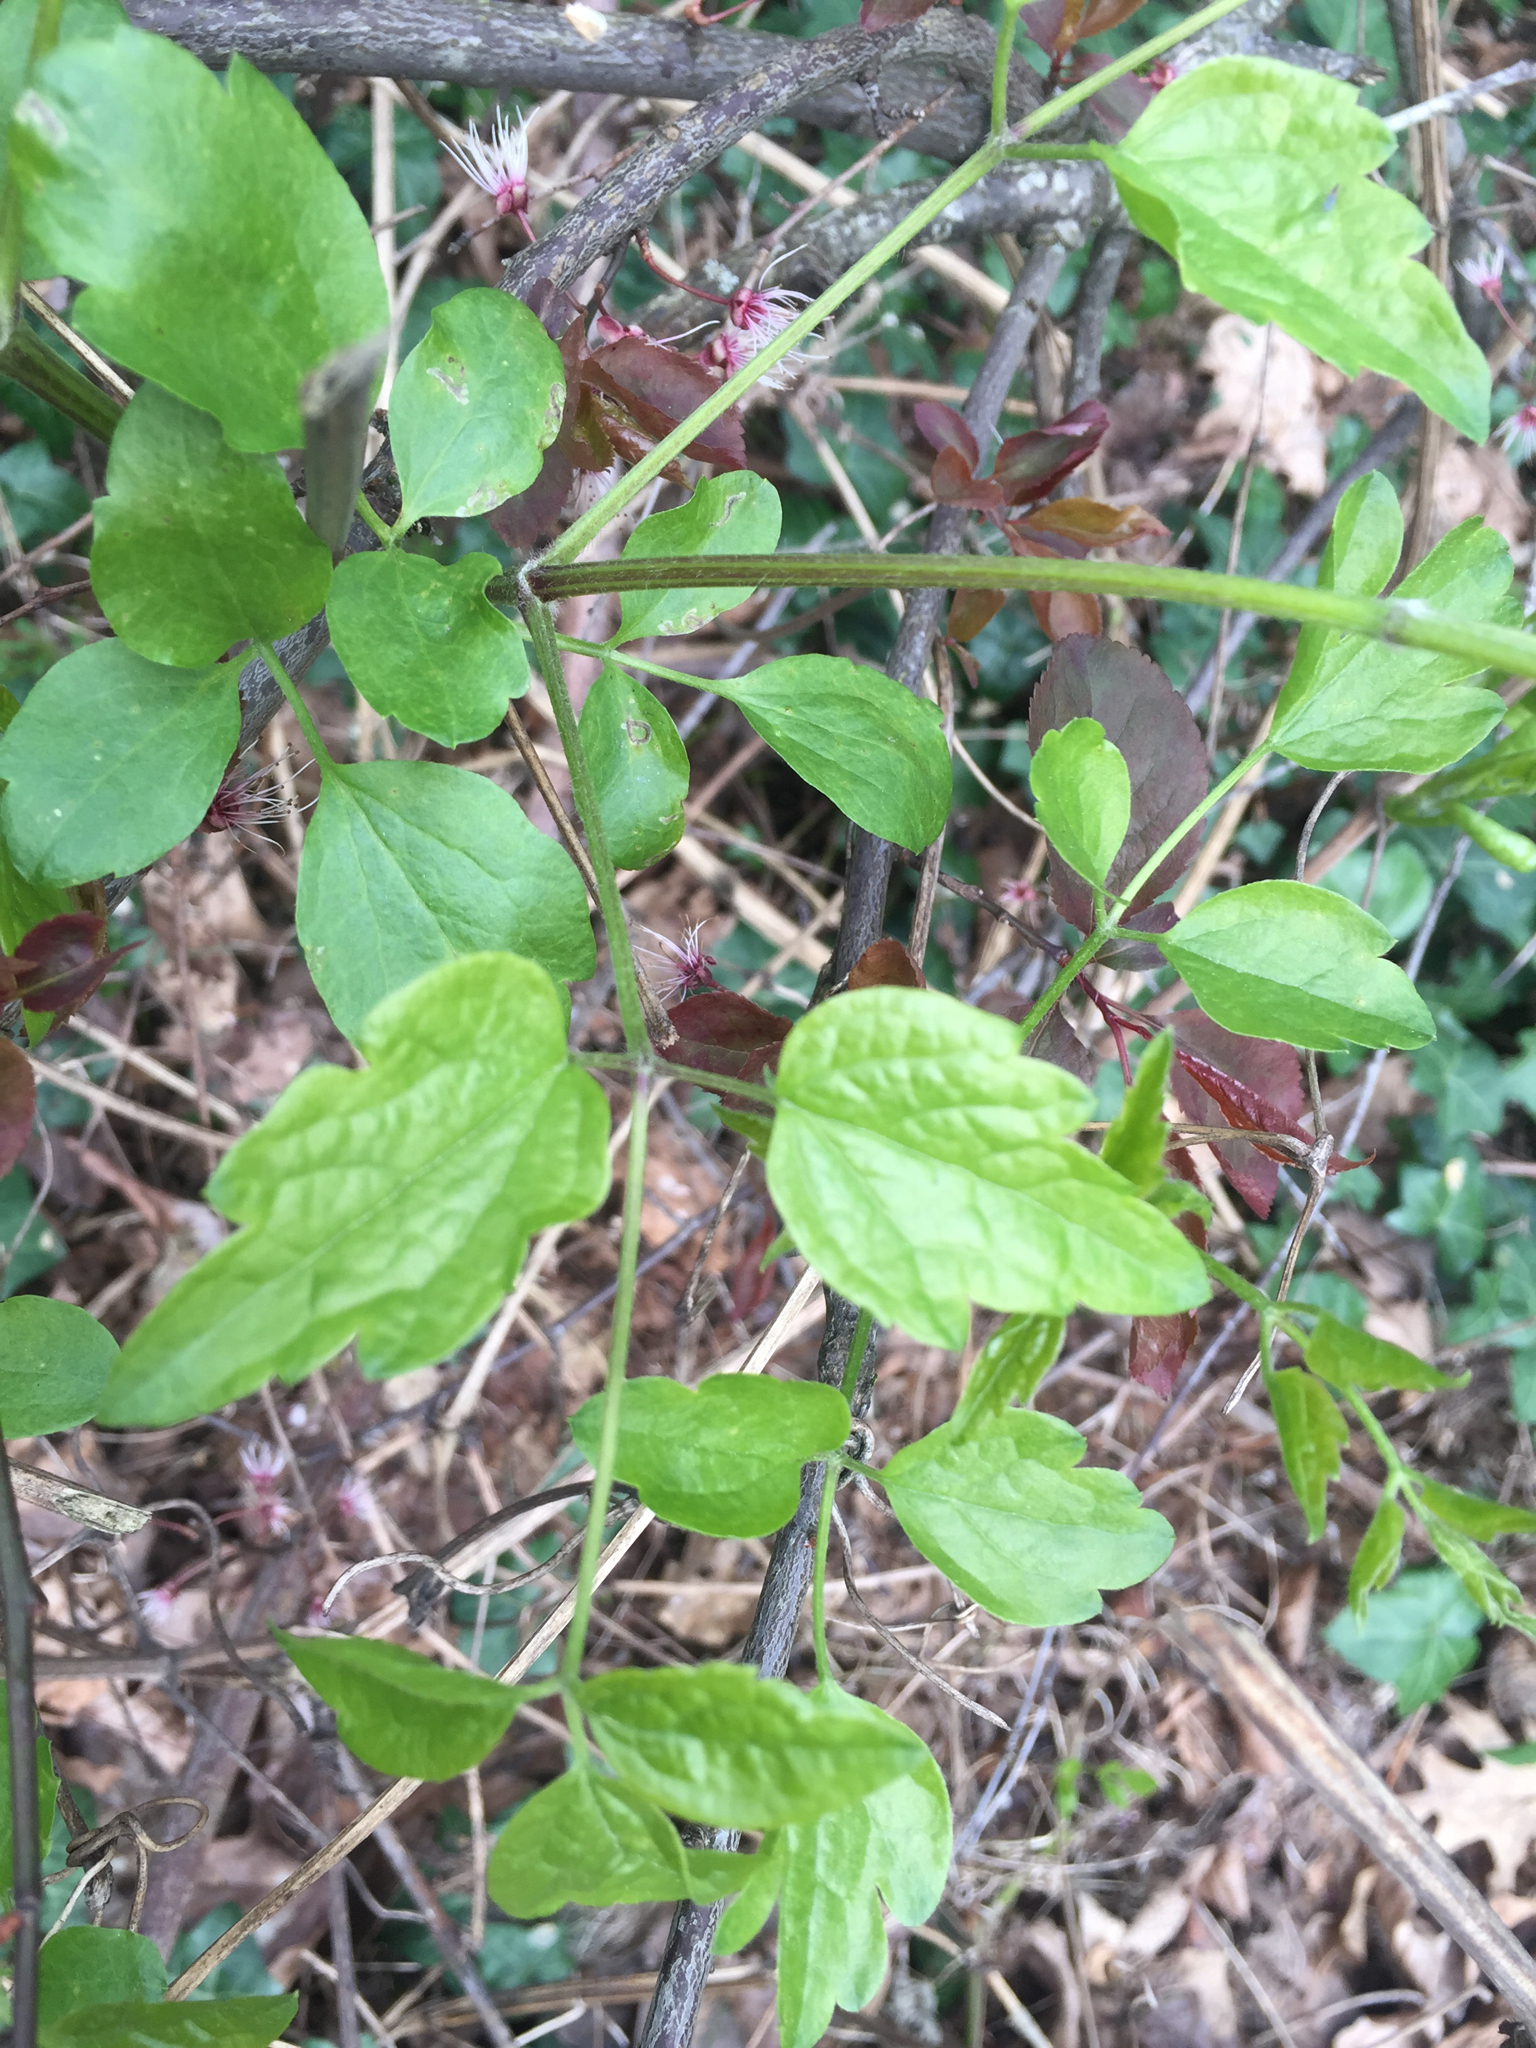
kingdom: Plantae
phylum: Tracheophyta
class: Magnoliopsida
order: Ranunculales
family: Ranunculaceae
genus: Clematis
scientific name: Clematis vitalba
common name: Evergreen clematis
